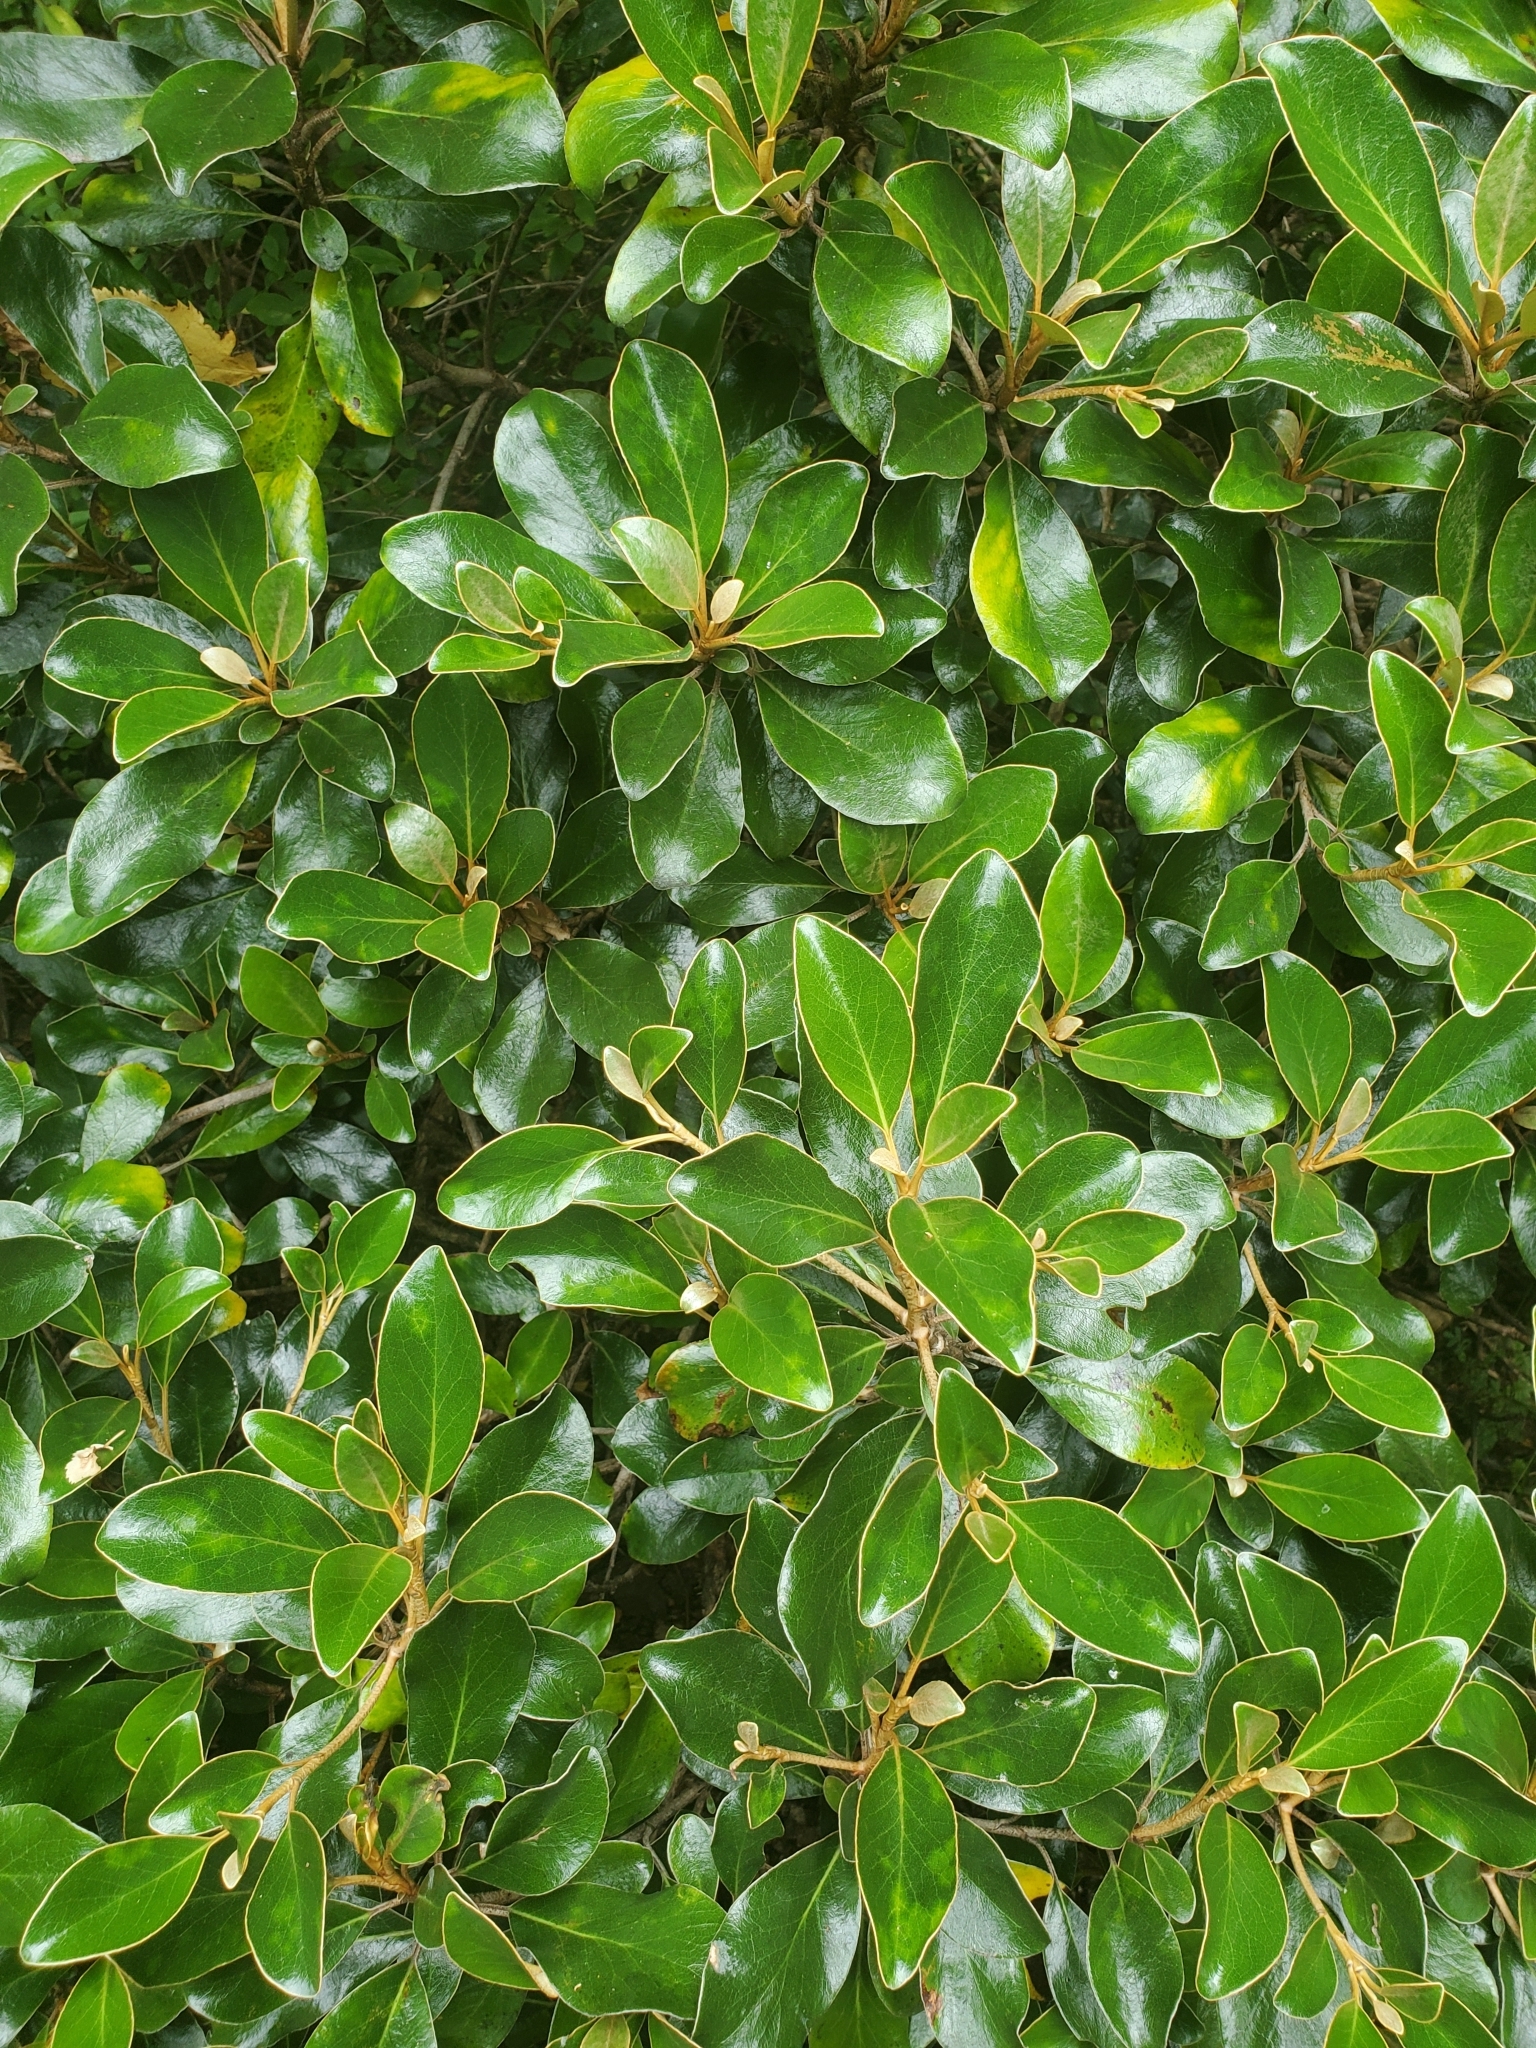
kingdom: Plantae
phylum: Tracheophyta
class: Magnoliopsida
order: Asterales
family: Asteraceae
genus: Brachyglottis
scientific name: Brachyglottis buchananii
